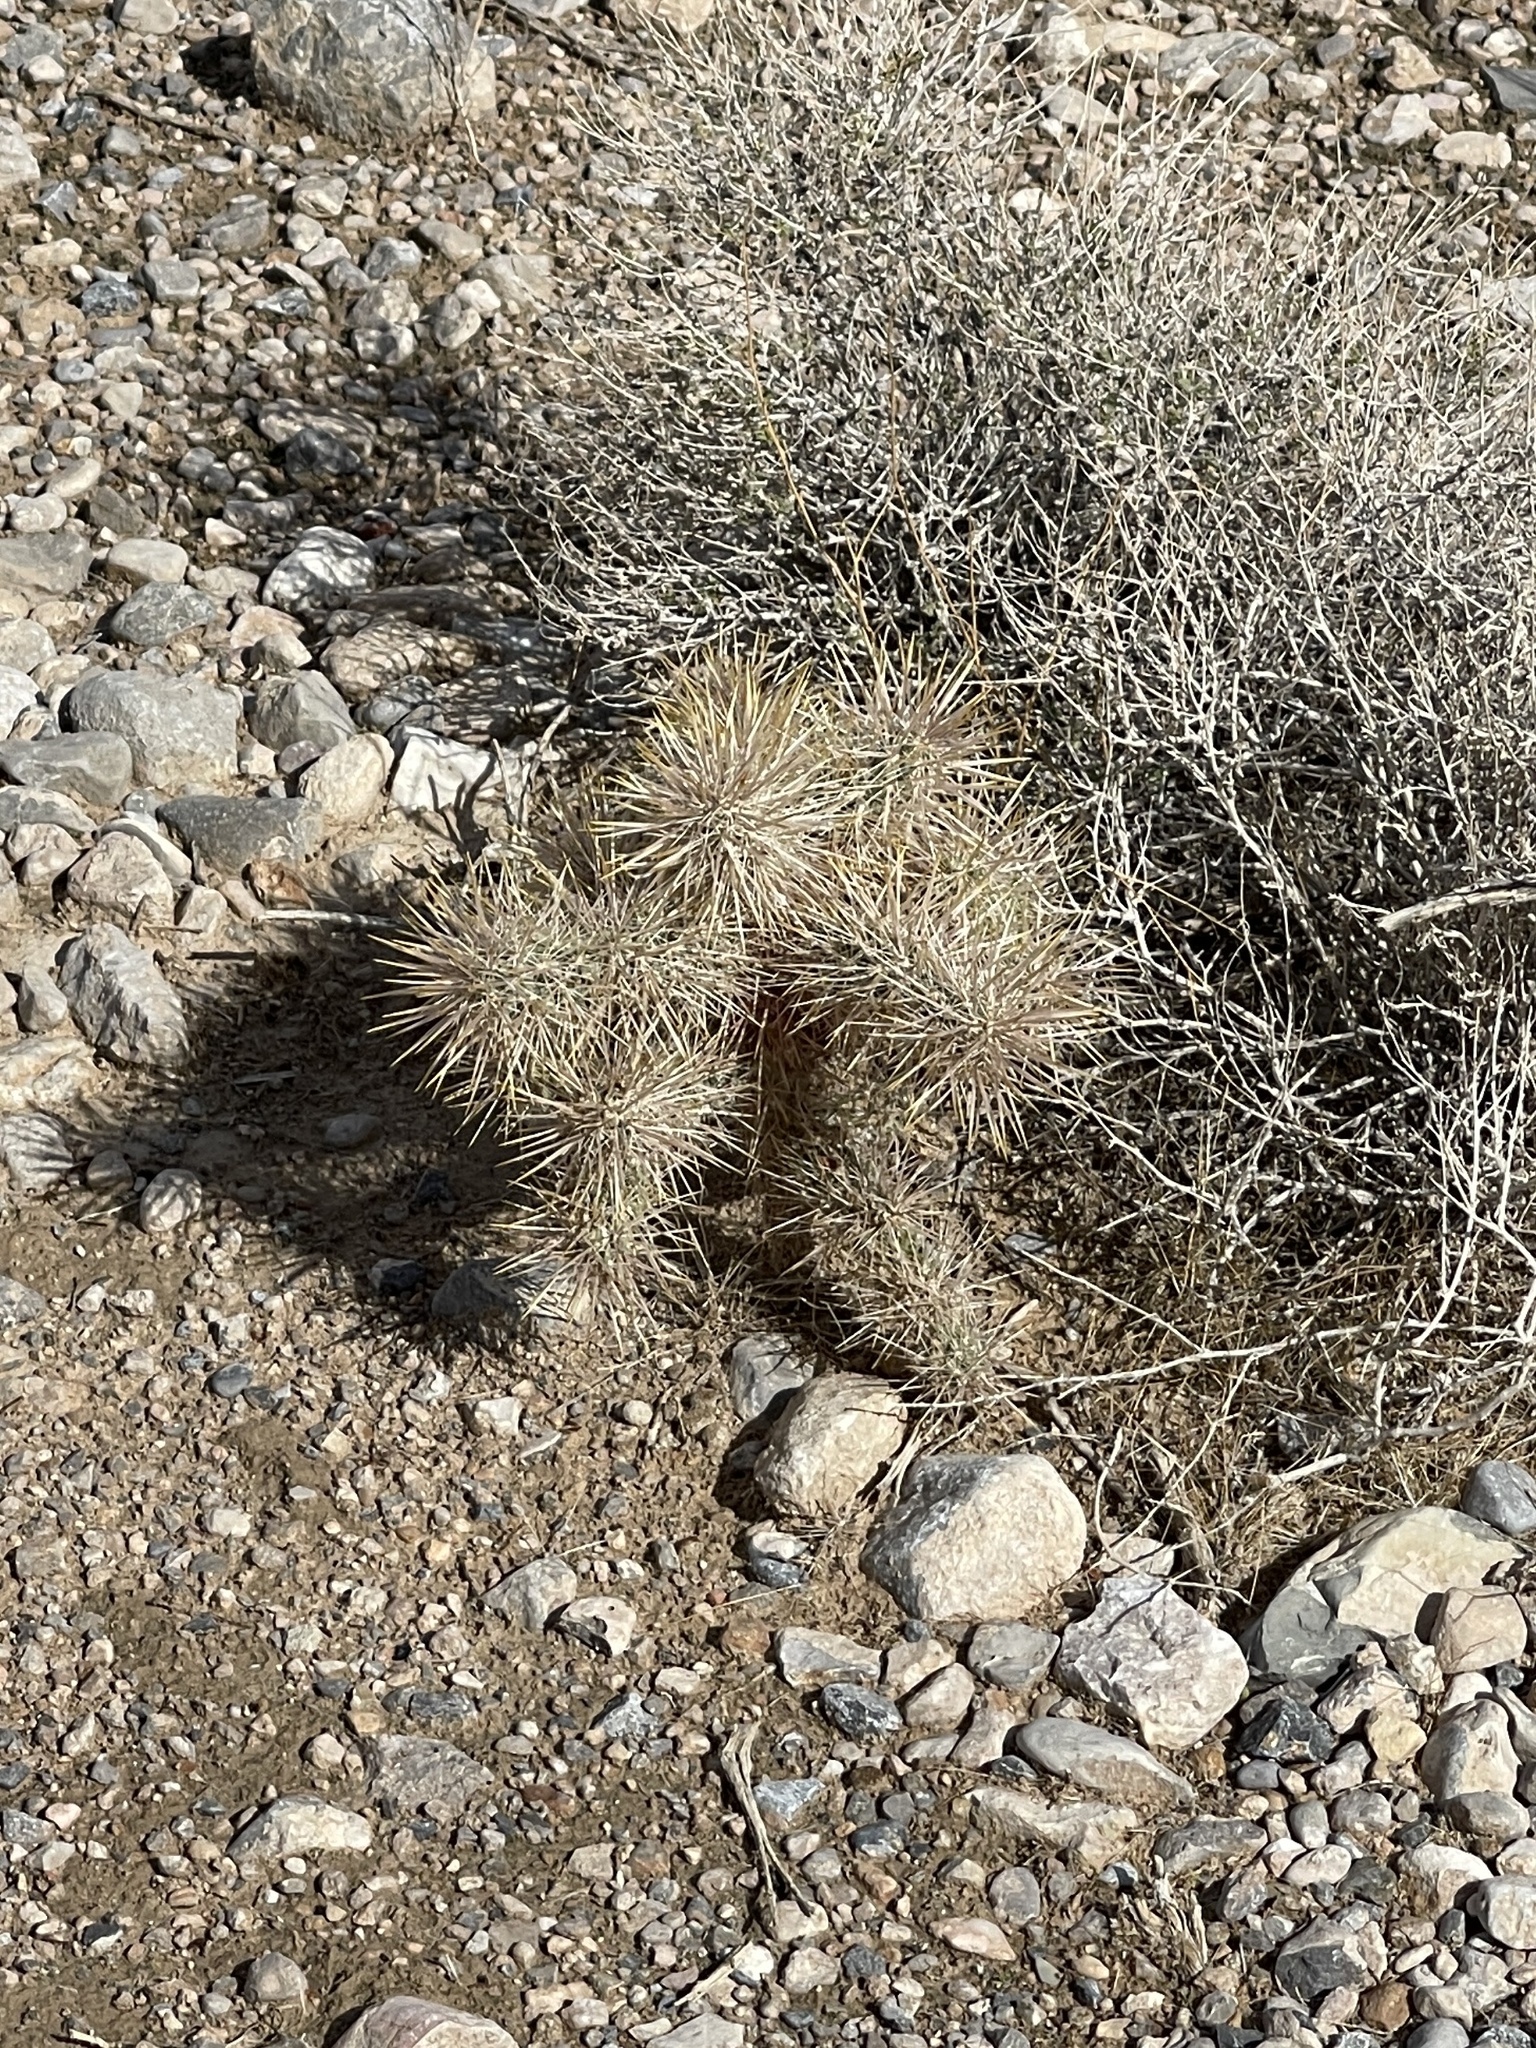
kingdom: Plantae
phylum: Tracheophyta
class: Magnoliopsida
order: Caryophyllales
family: Cactaceae
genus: Cylindropuntia
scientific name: Cylindropuntia echinocarpa
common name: Ground cholla
